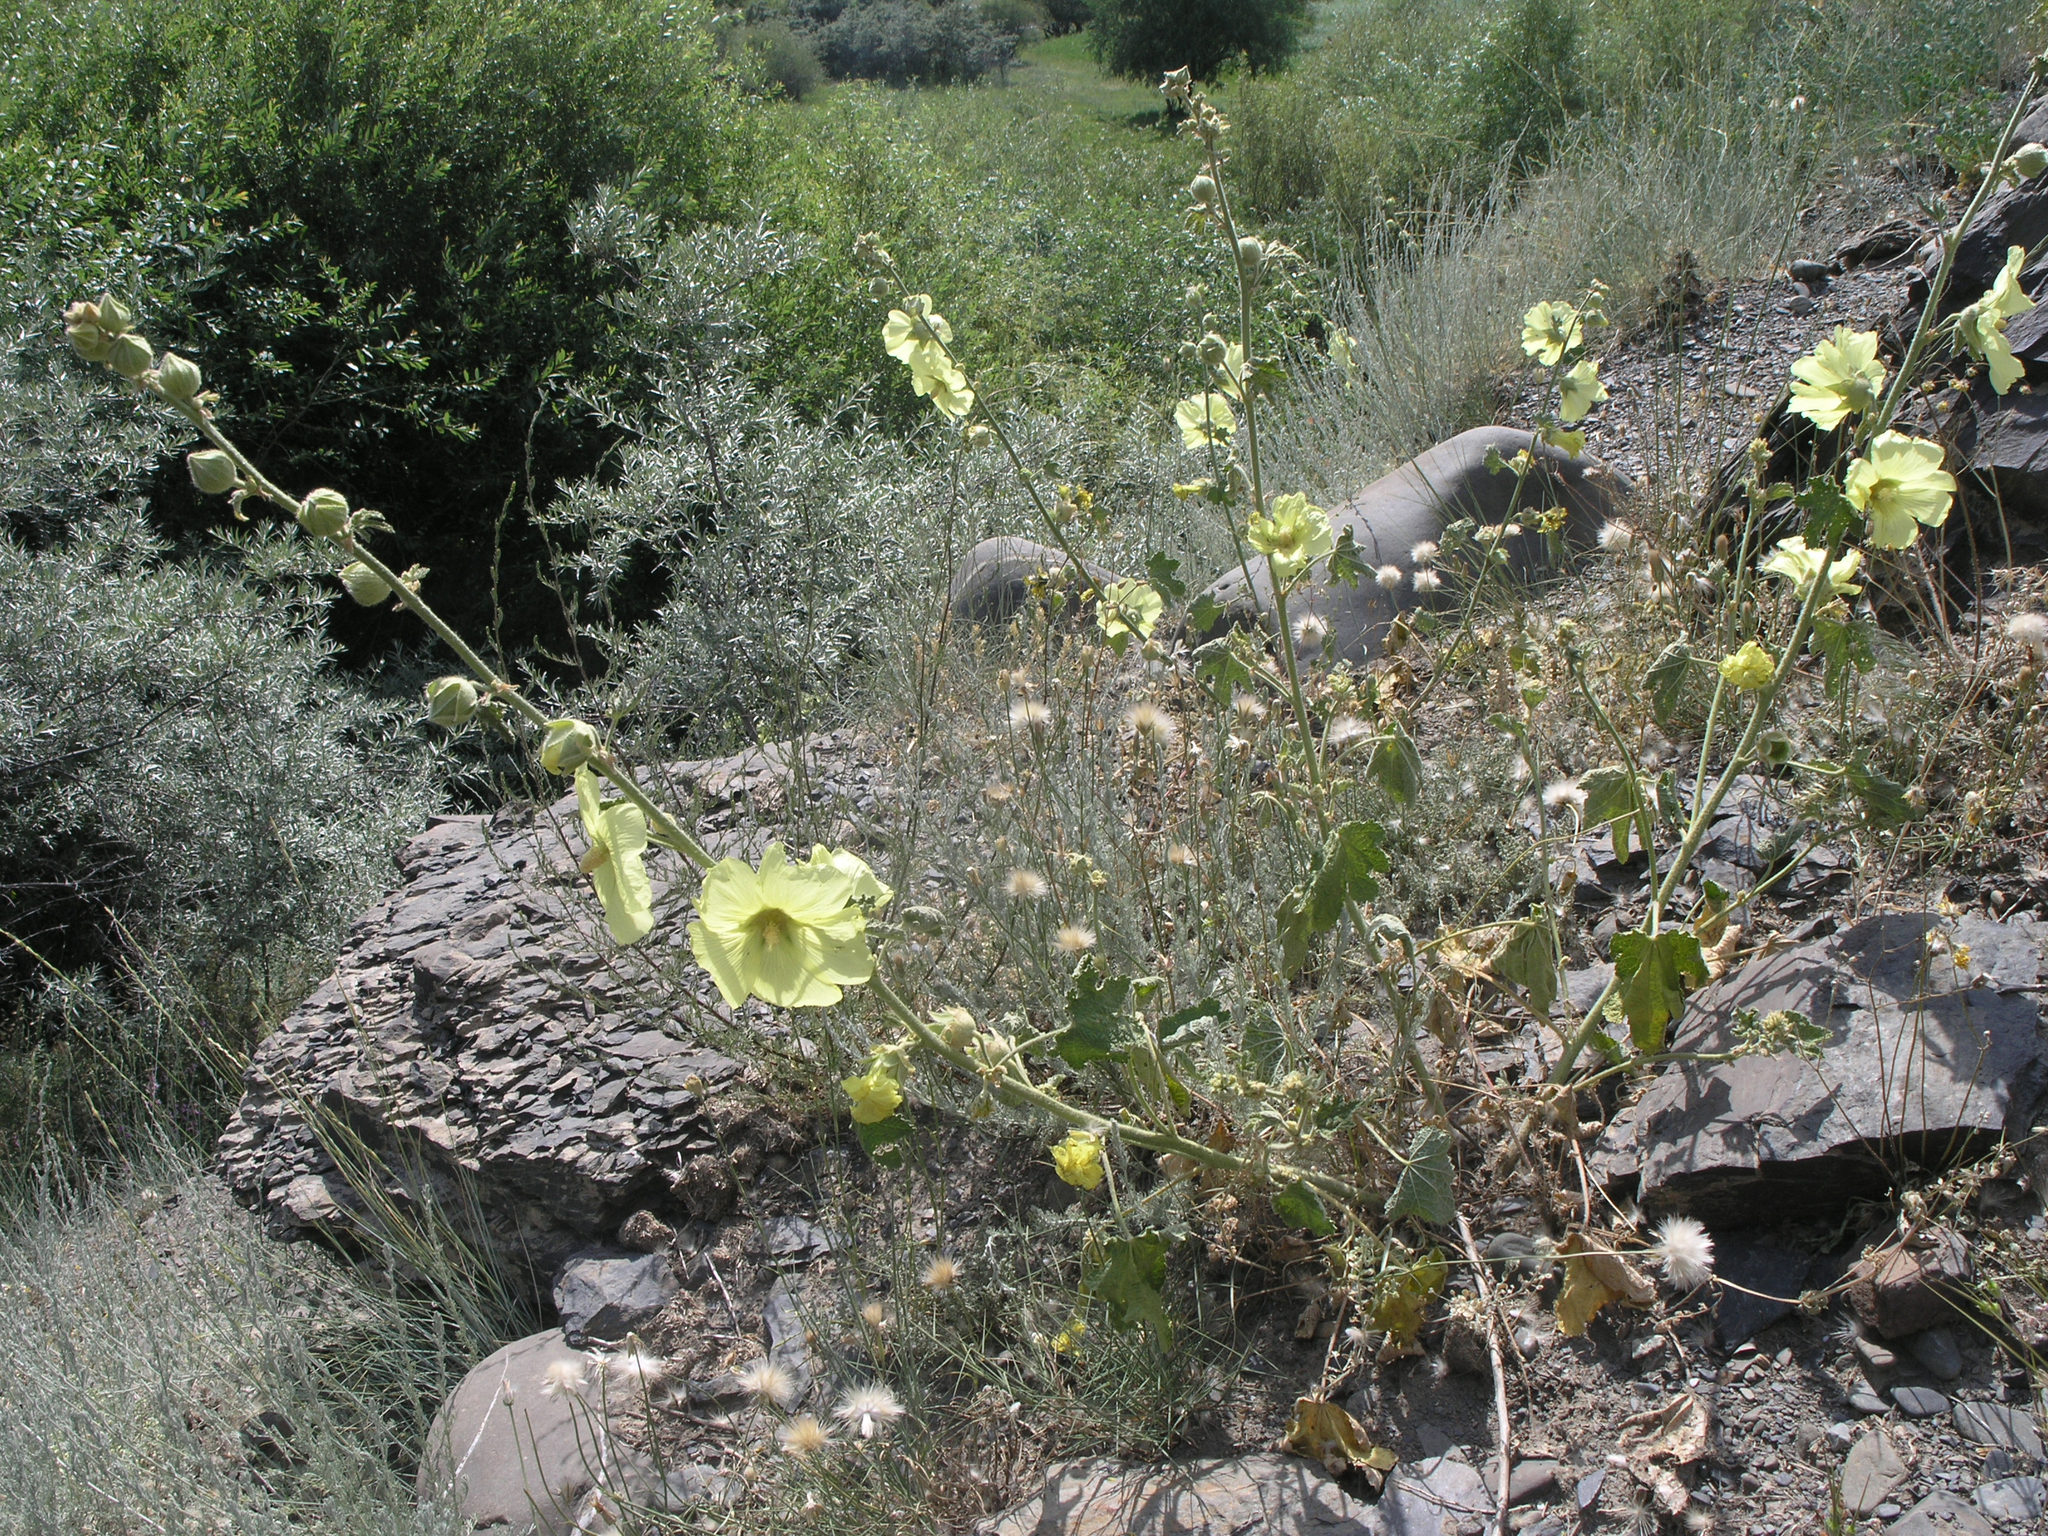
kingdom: Plantae
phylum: Tracheophyta
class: Magnoliopsida
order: Malvales
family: Malvaceae
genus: Alcea
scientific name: Alcea rugosa
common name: Russian hollyhock
